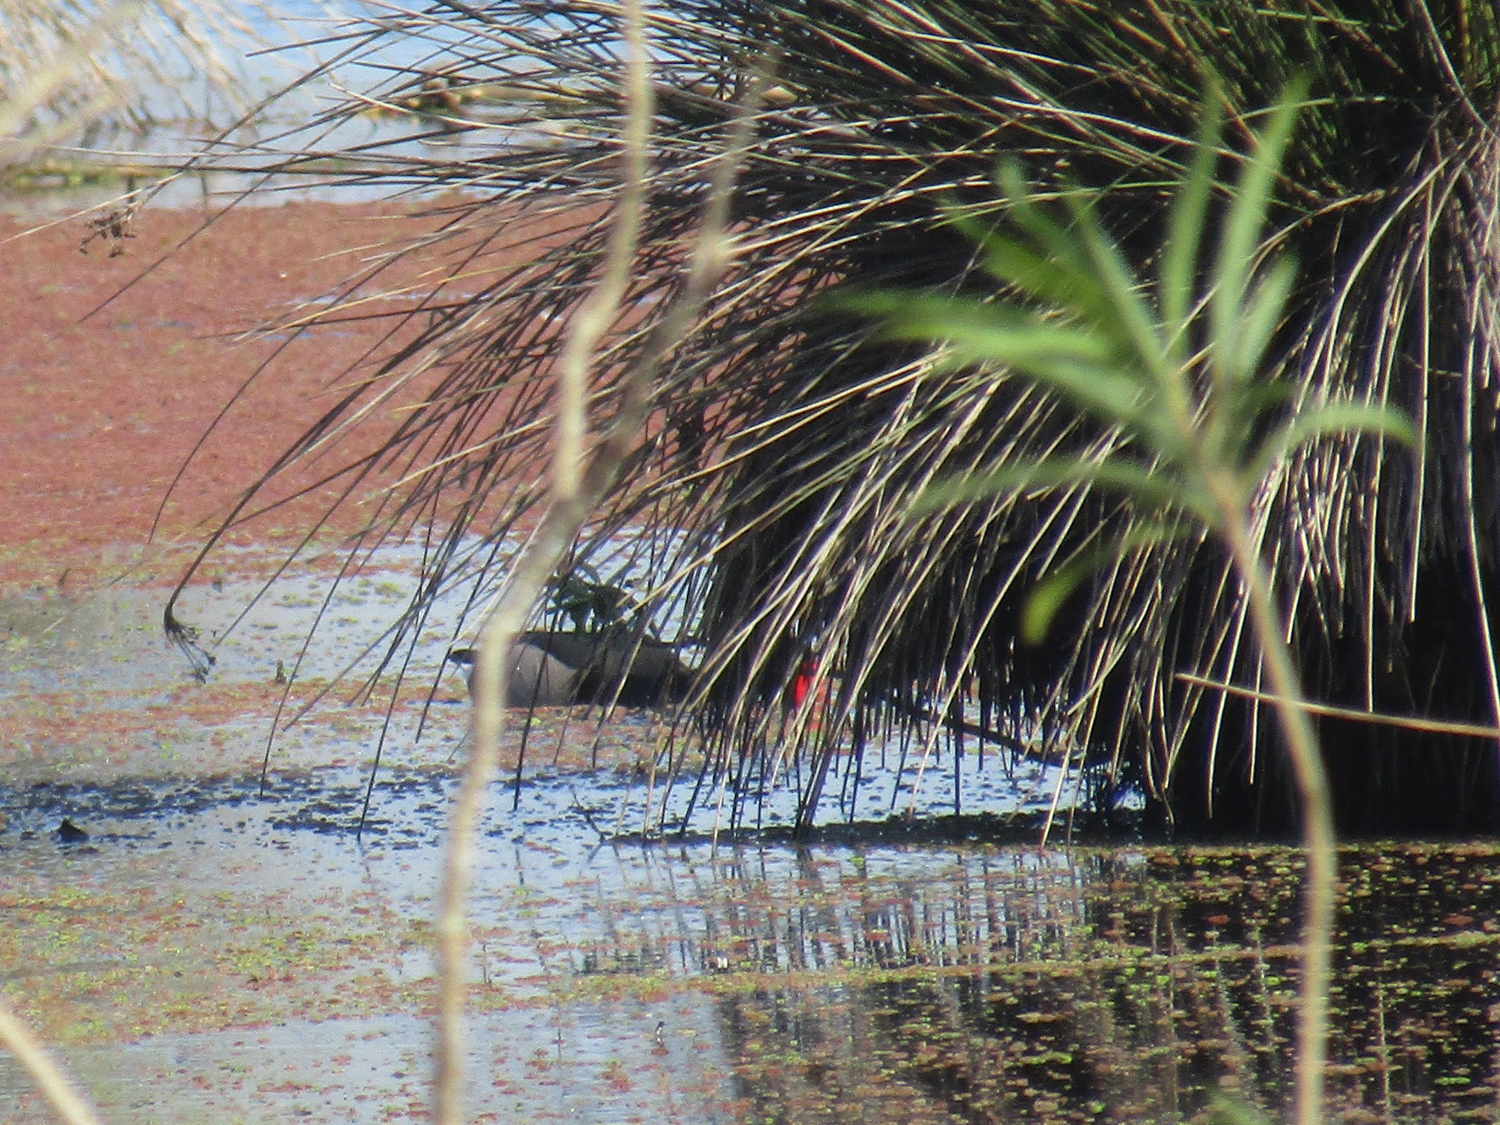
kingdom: Animalia
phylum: Chordata
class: Aves
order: Anseriformes
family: Anatidae
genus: Netta
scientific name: Netta peposaca
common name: Rosy-billed pochard
